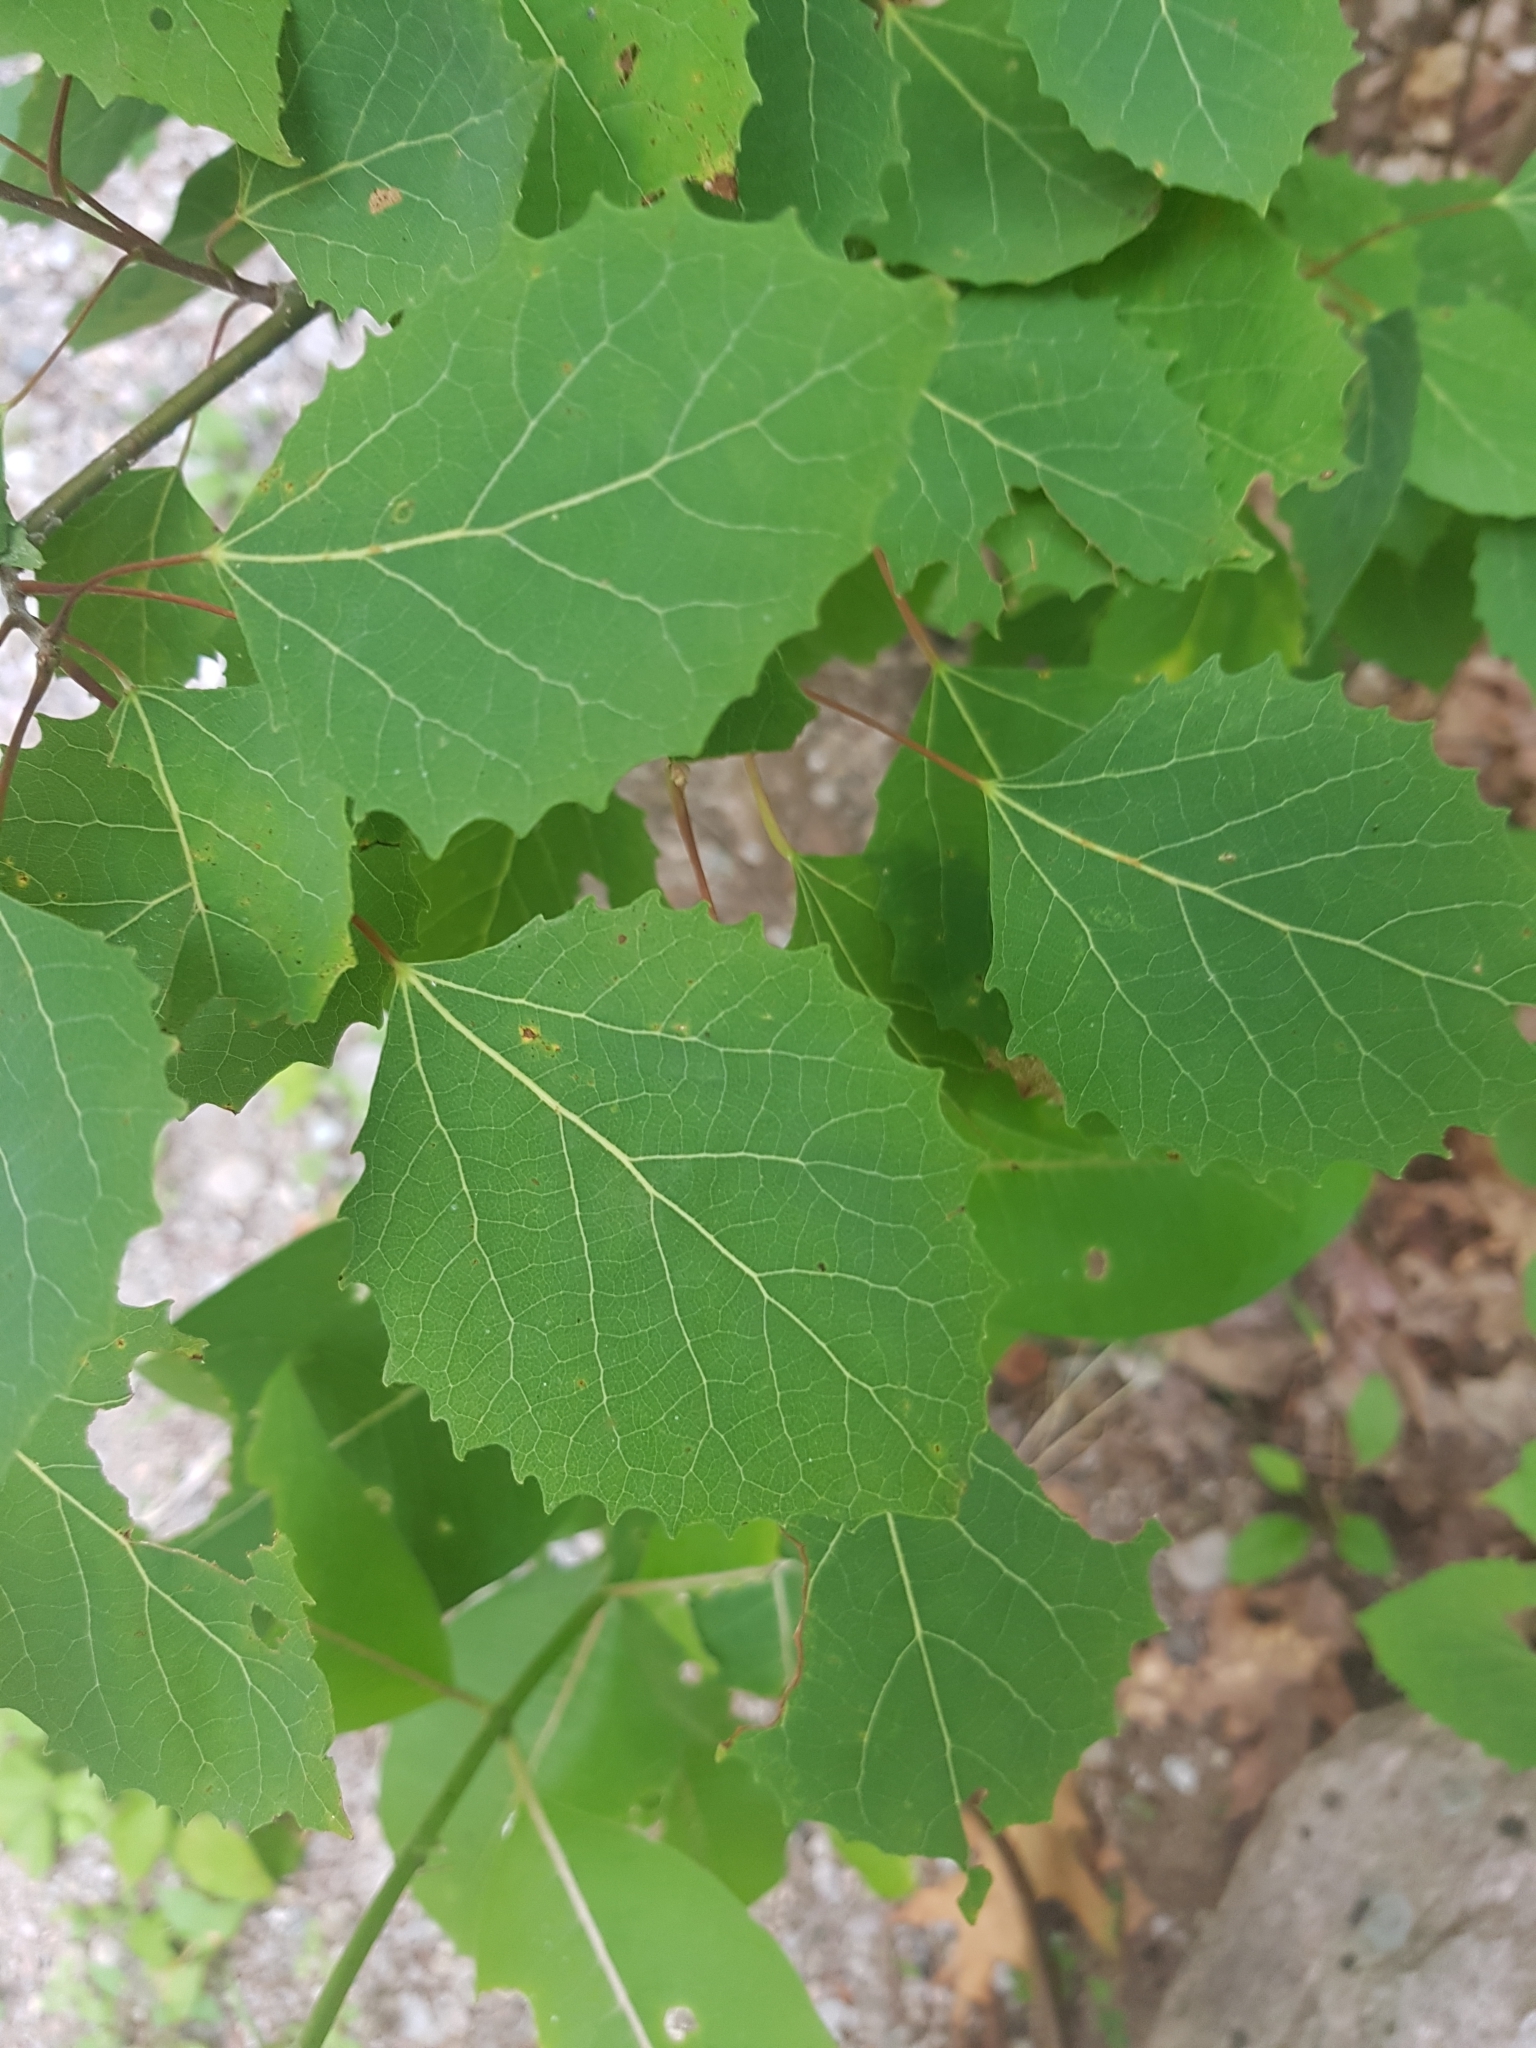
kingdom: Plantae
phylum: Tracheophyta
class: Magnoliopsida
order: Malpighiales
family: Salicaceae
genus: Populus
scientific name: Populus grandidentata
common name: Bigtooth aspen
